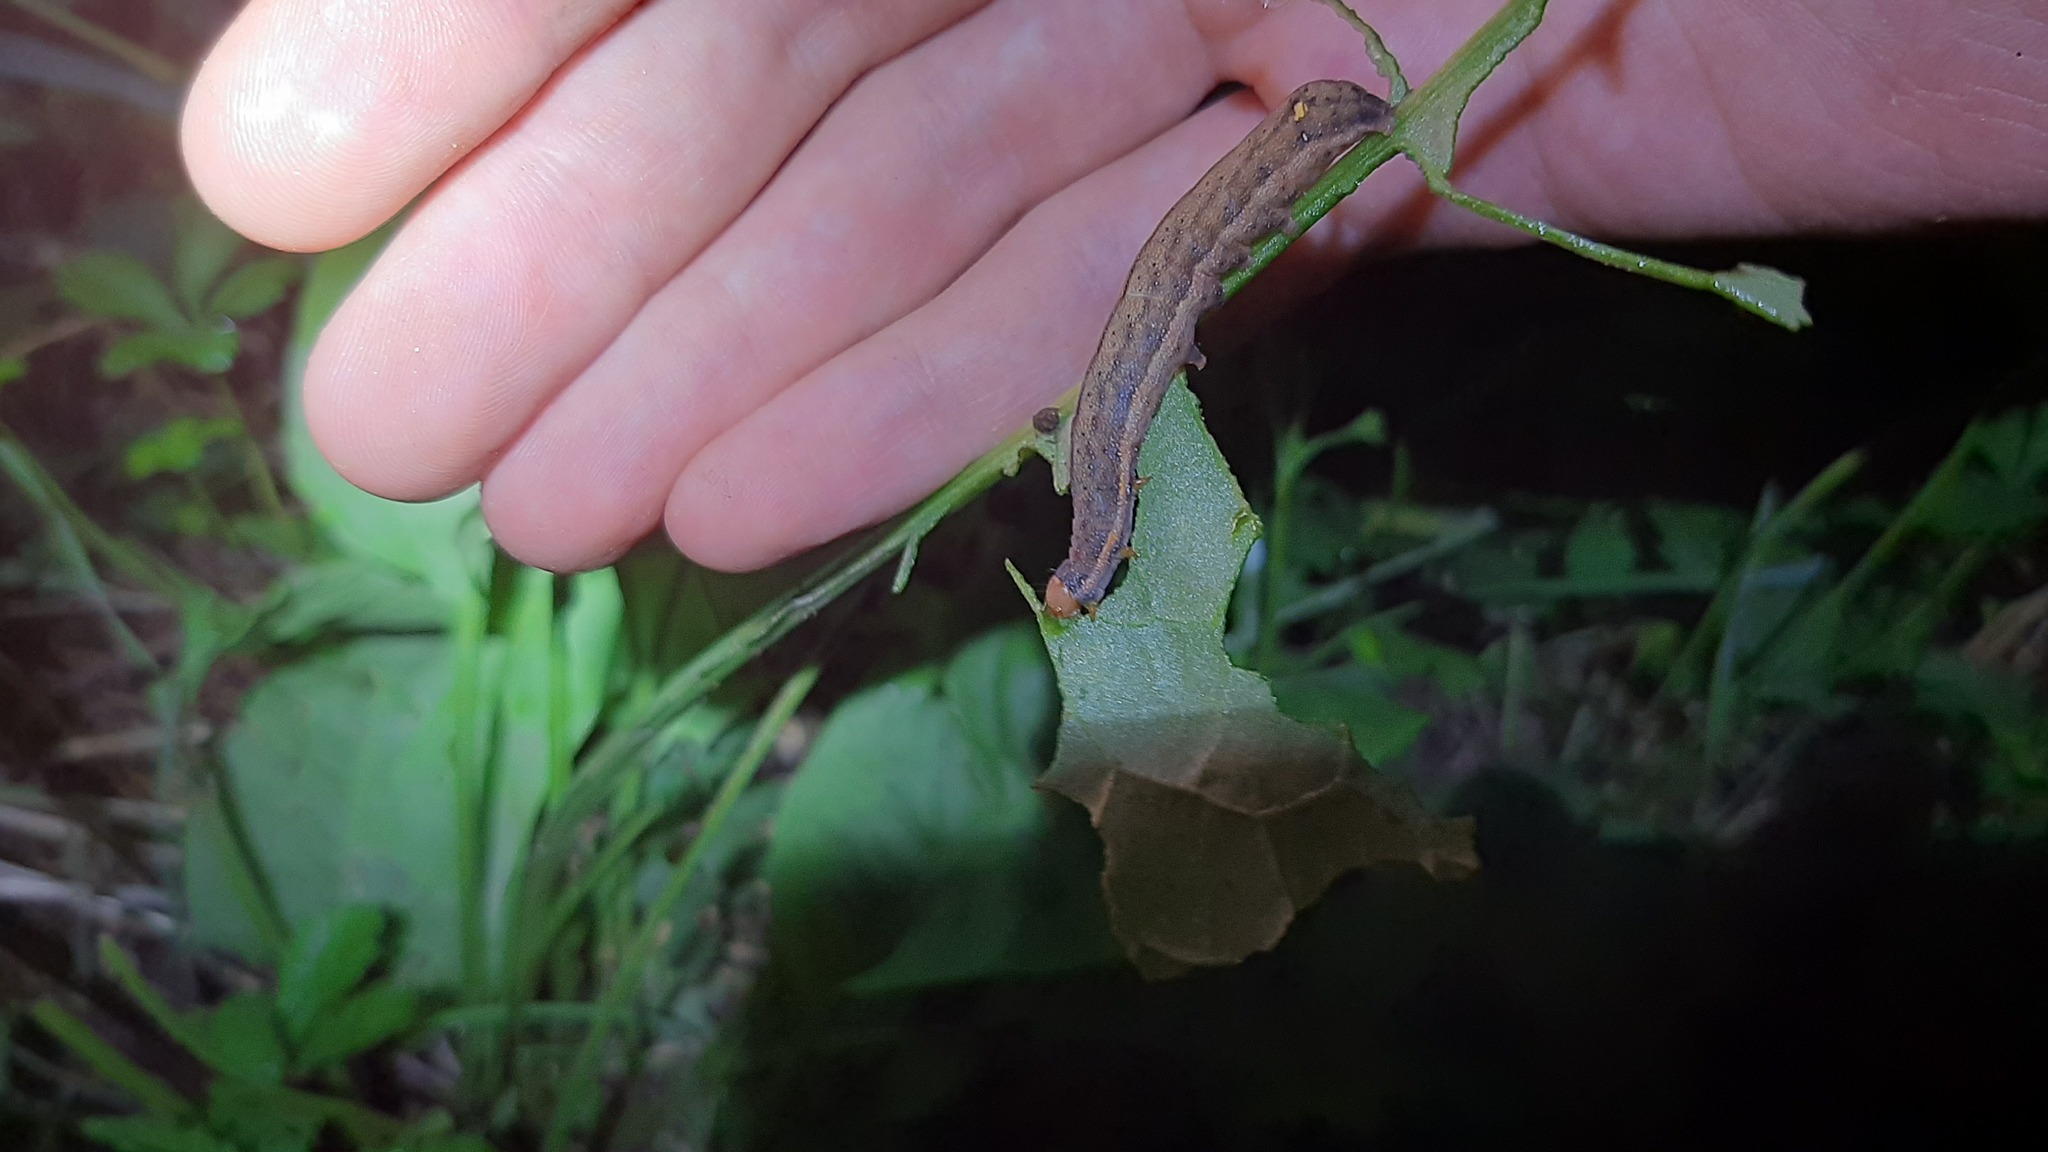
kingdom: Animalia
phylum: Arthropoda
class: Insecta
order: Lepidoptera
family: Noctuidae
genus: Trachea
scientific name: Trachea atriplicis
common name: Orache moth
